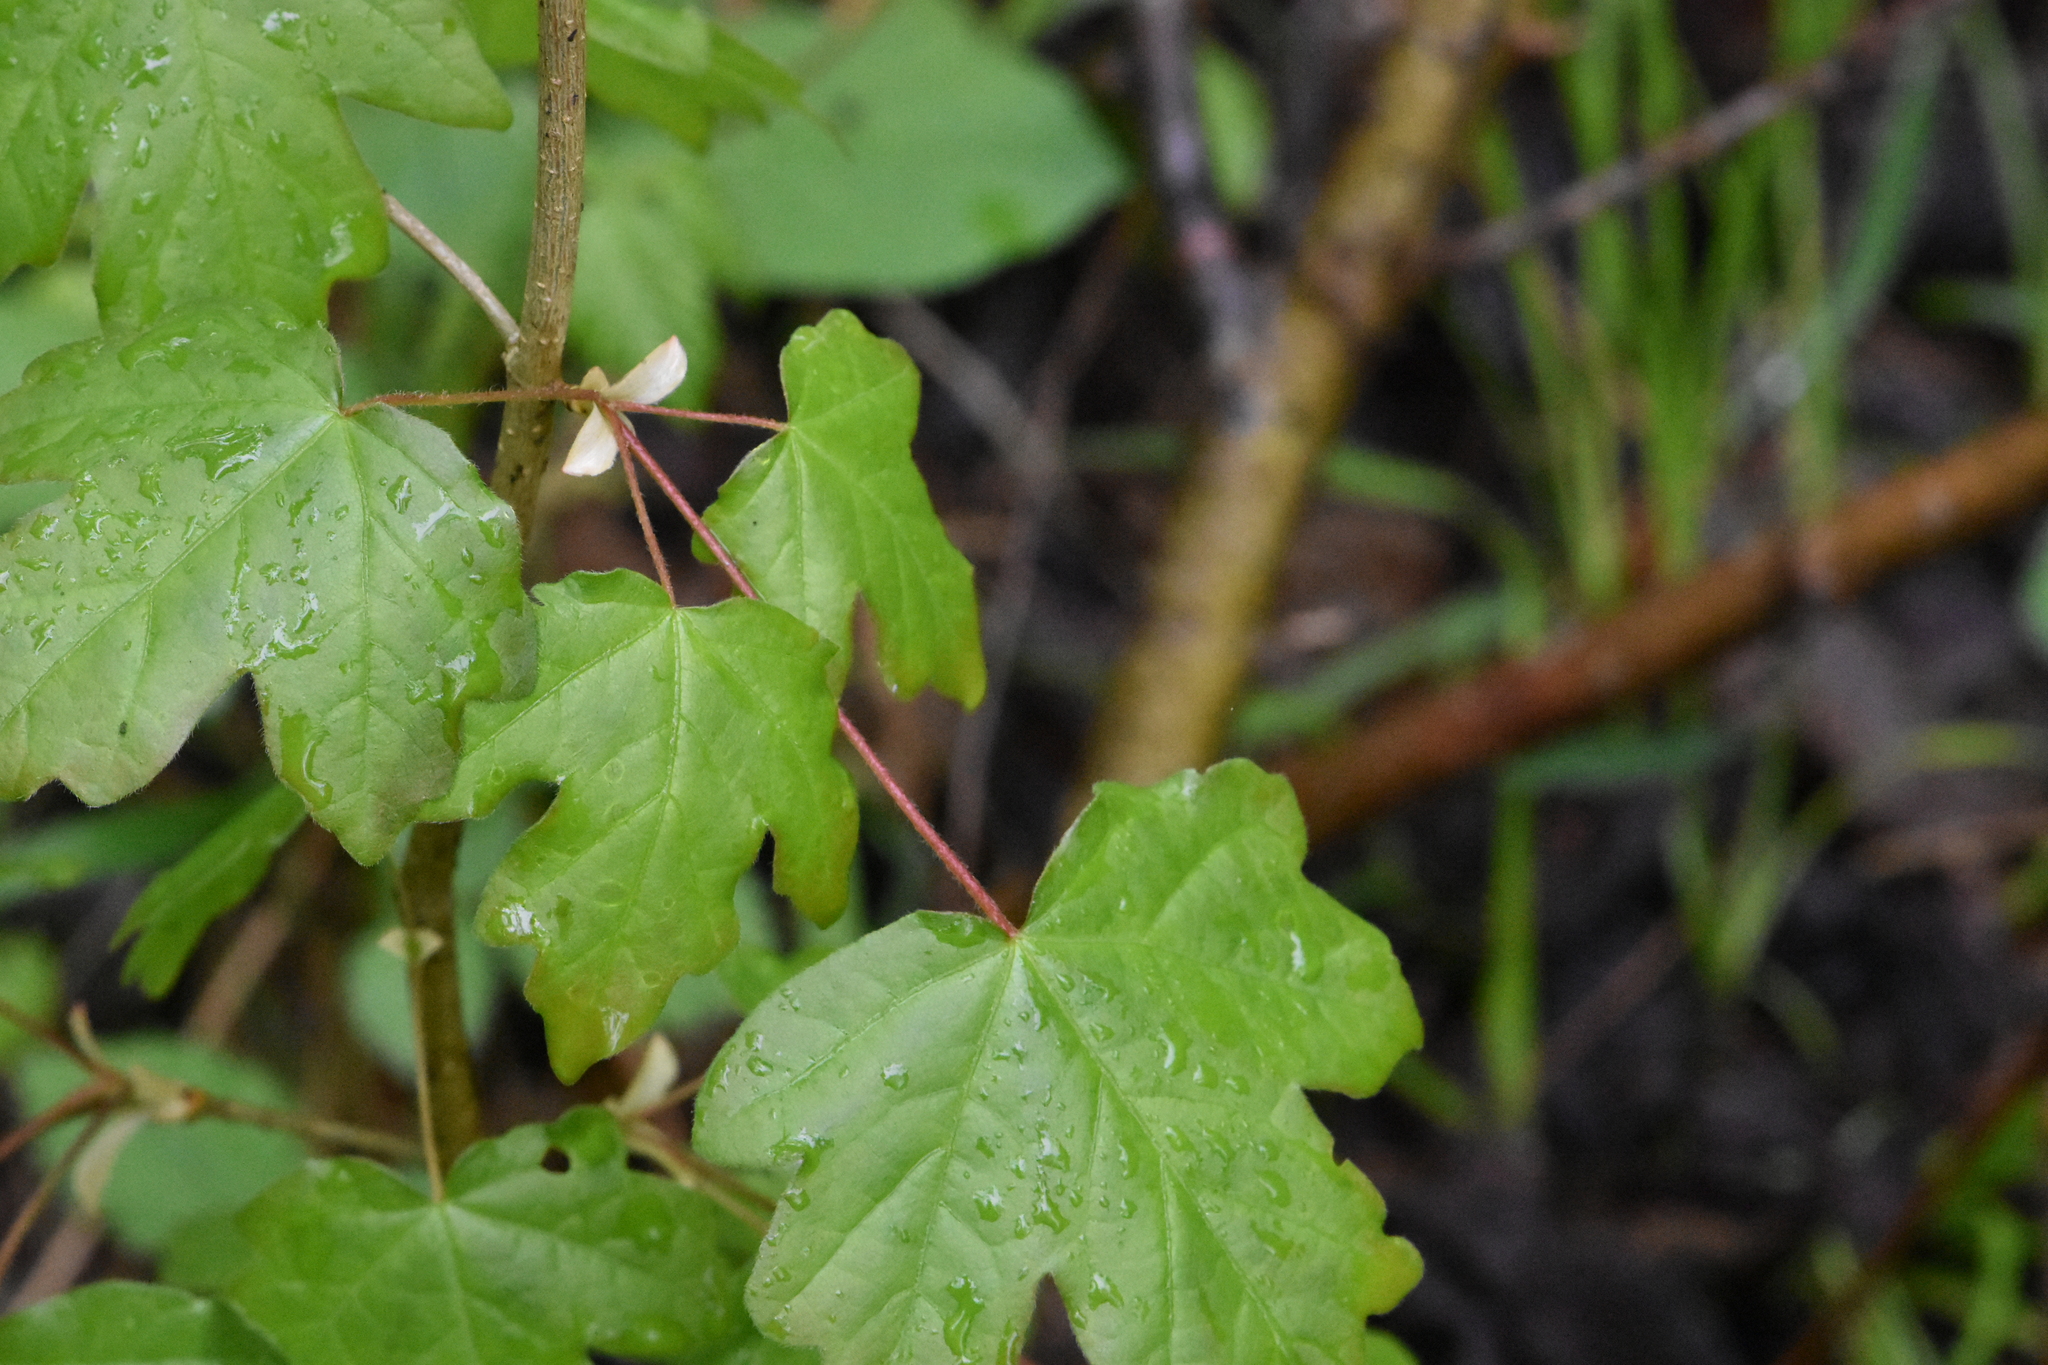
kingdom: Plantae
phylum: Tracheophyta
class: Magnoliopsida
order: Sapindales
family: Sapindaceae
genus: Acer
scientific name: Acer campestre
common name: Field maple
